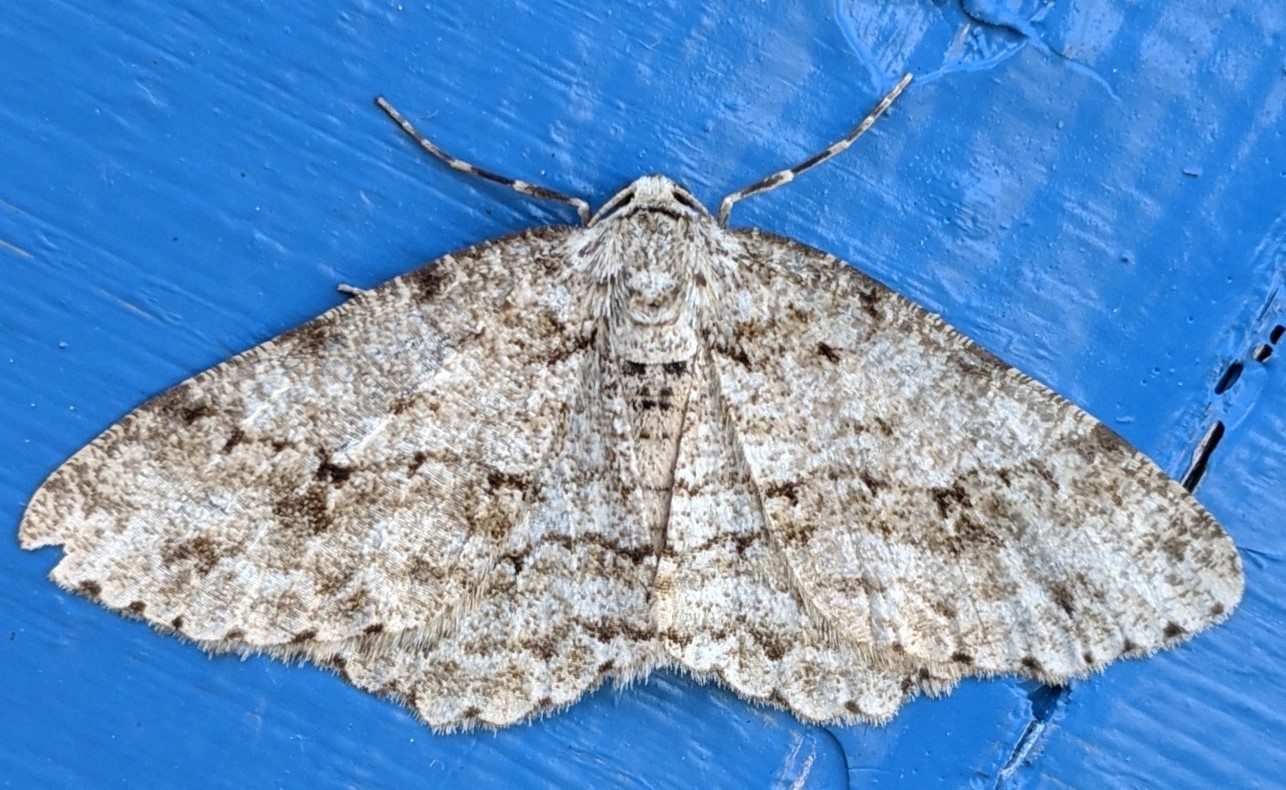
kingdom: Animalia
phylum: Arthropoda
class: Insecta
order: Lepidoptera
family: Geometridae
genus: Ectropis
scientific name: Ectropis crepuscularia
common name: Engrailed
